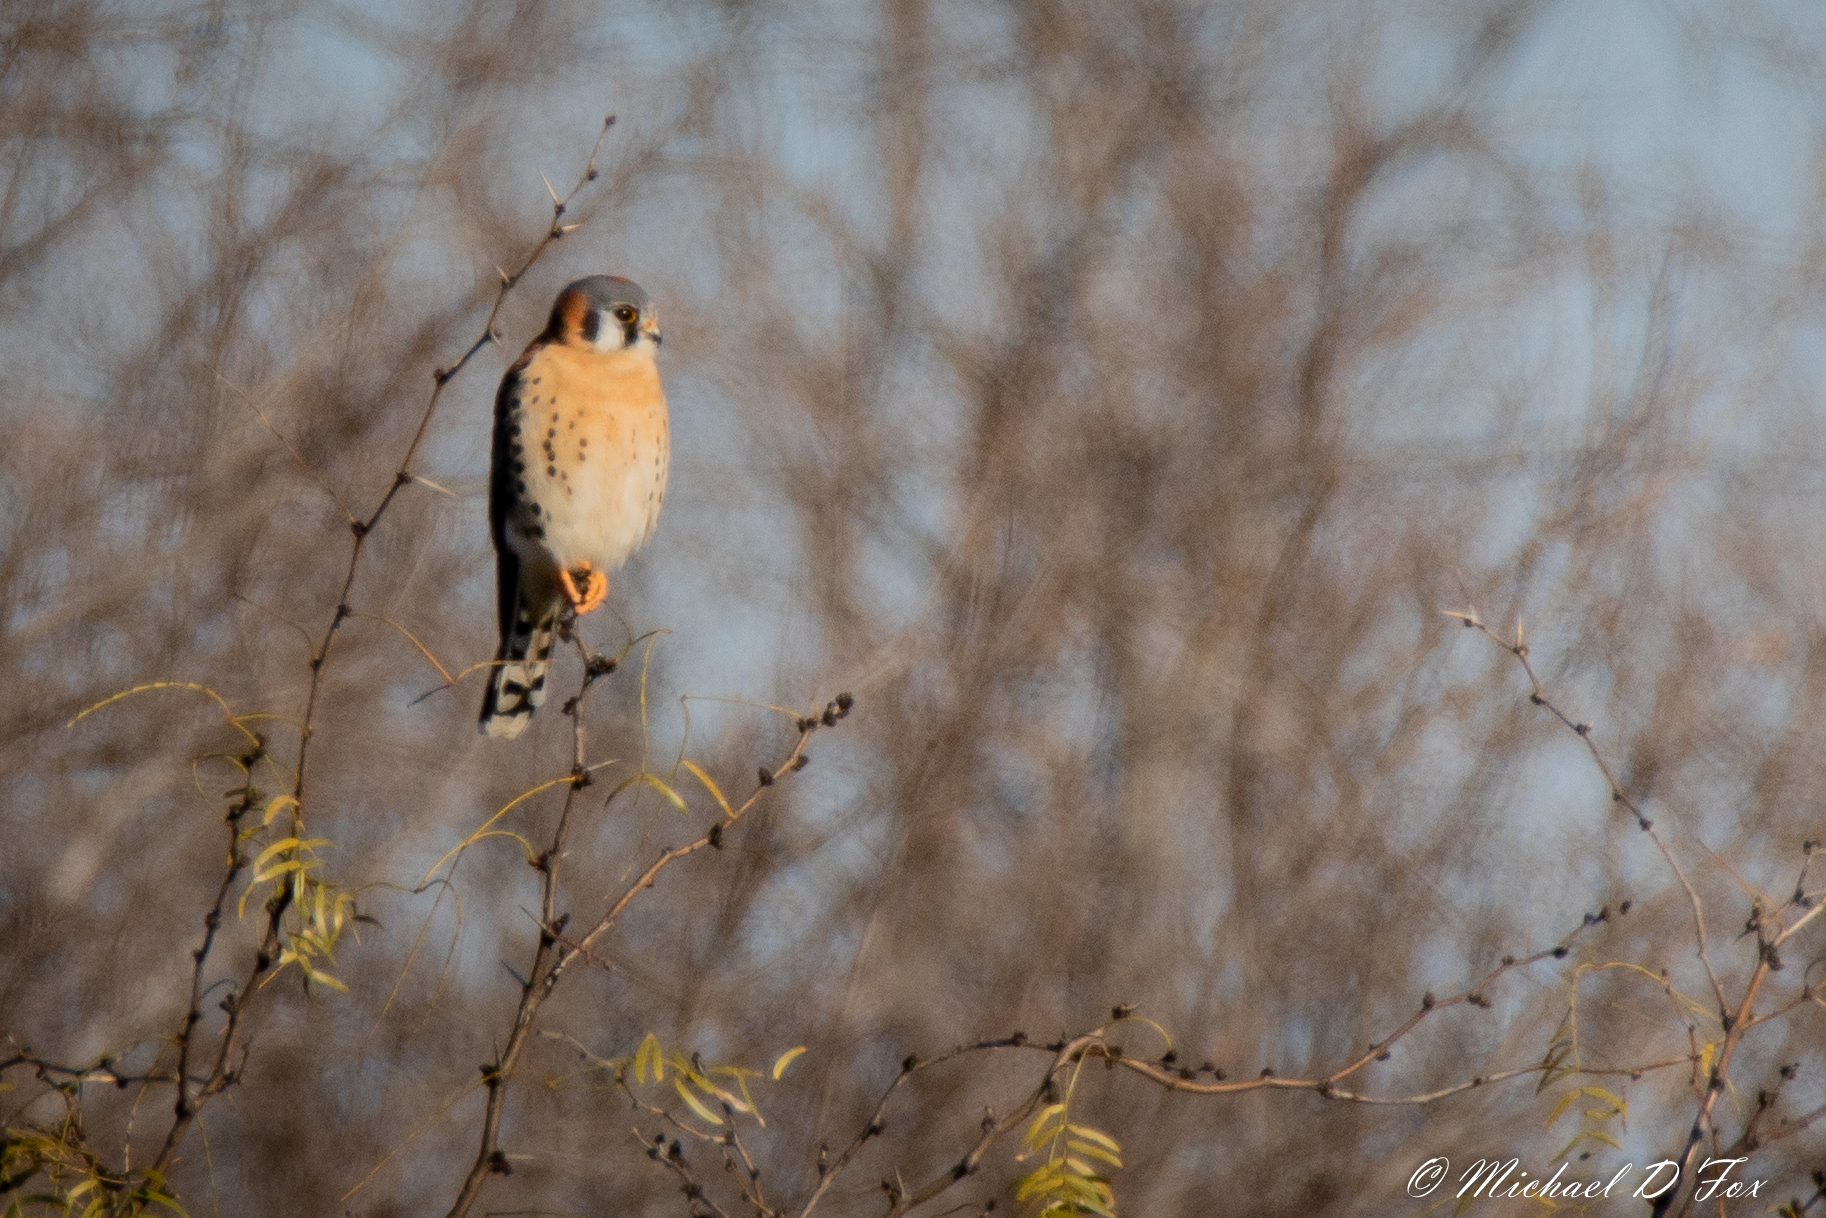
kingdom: Animalia
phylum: Chordata
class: Aves
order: Falconiformes
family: Falconidae
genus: Falco
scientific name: Falco sparverius
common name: American kestrel
